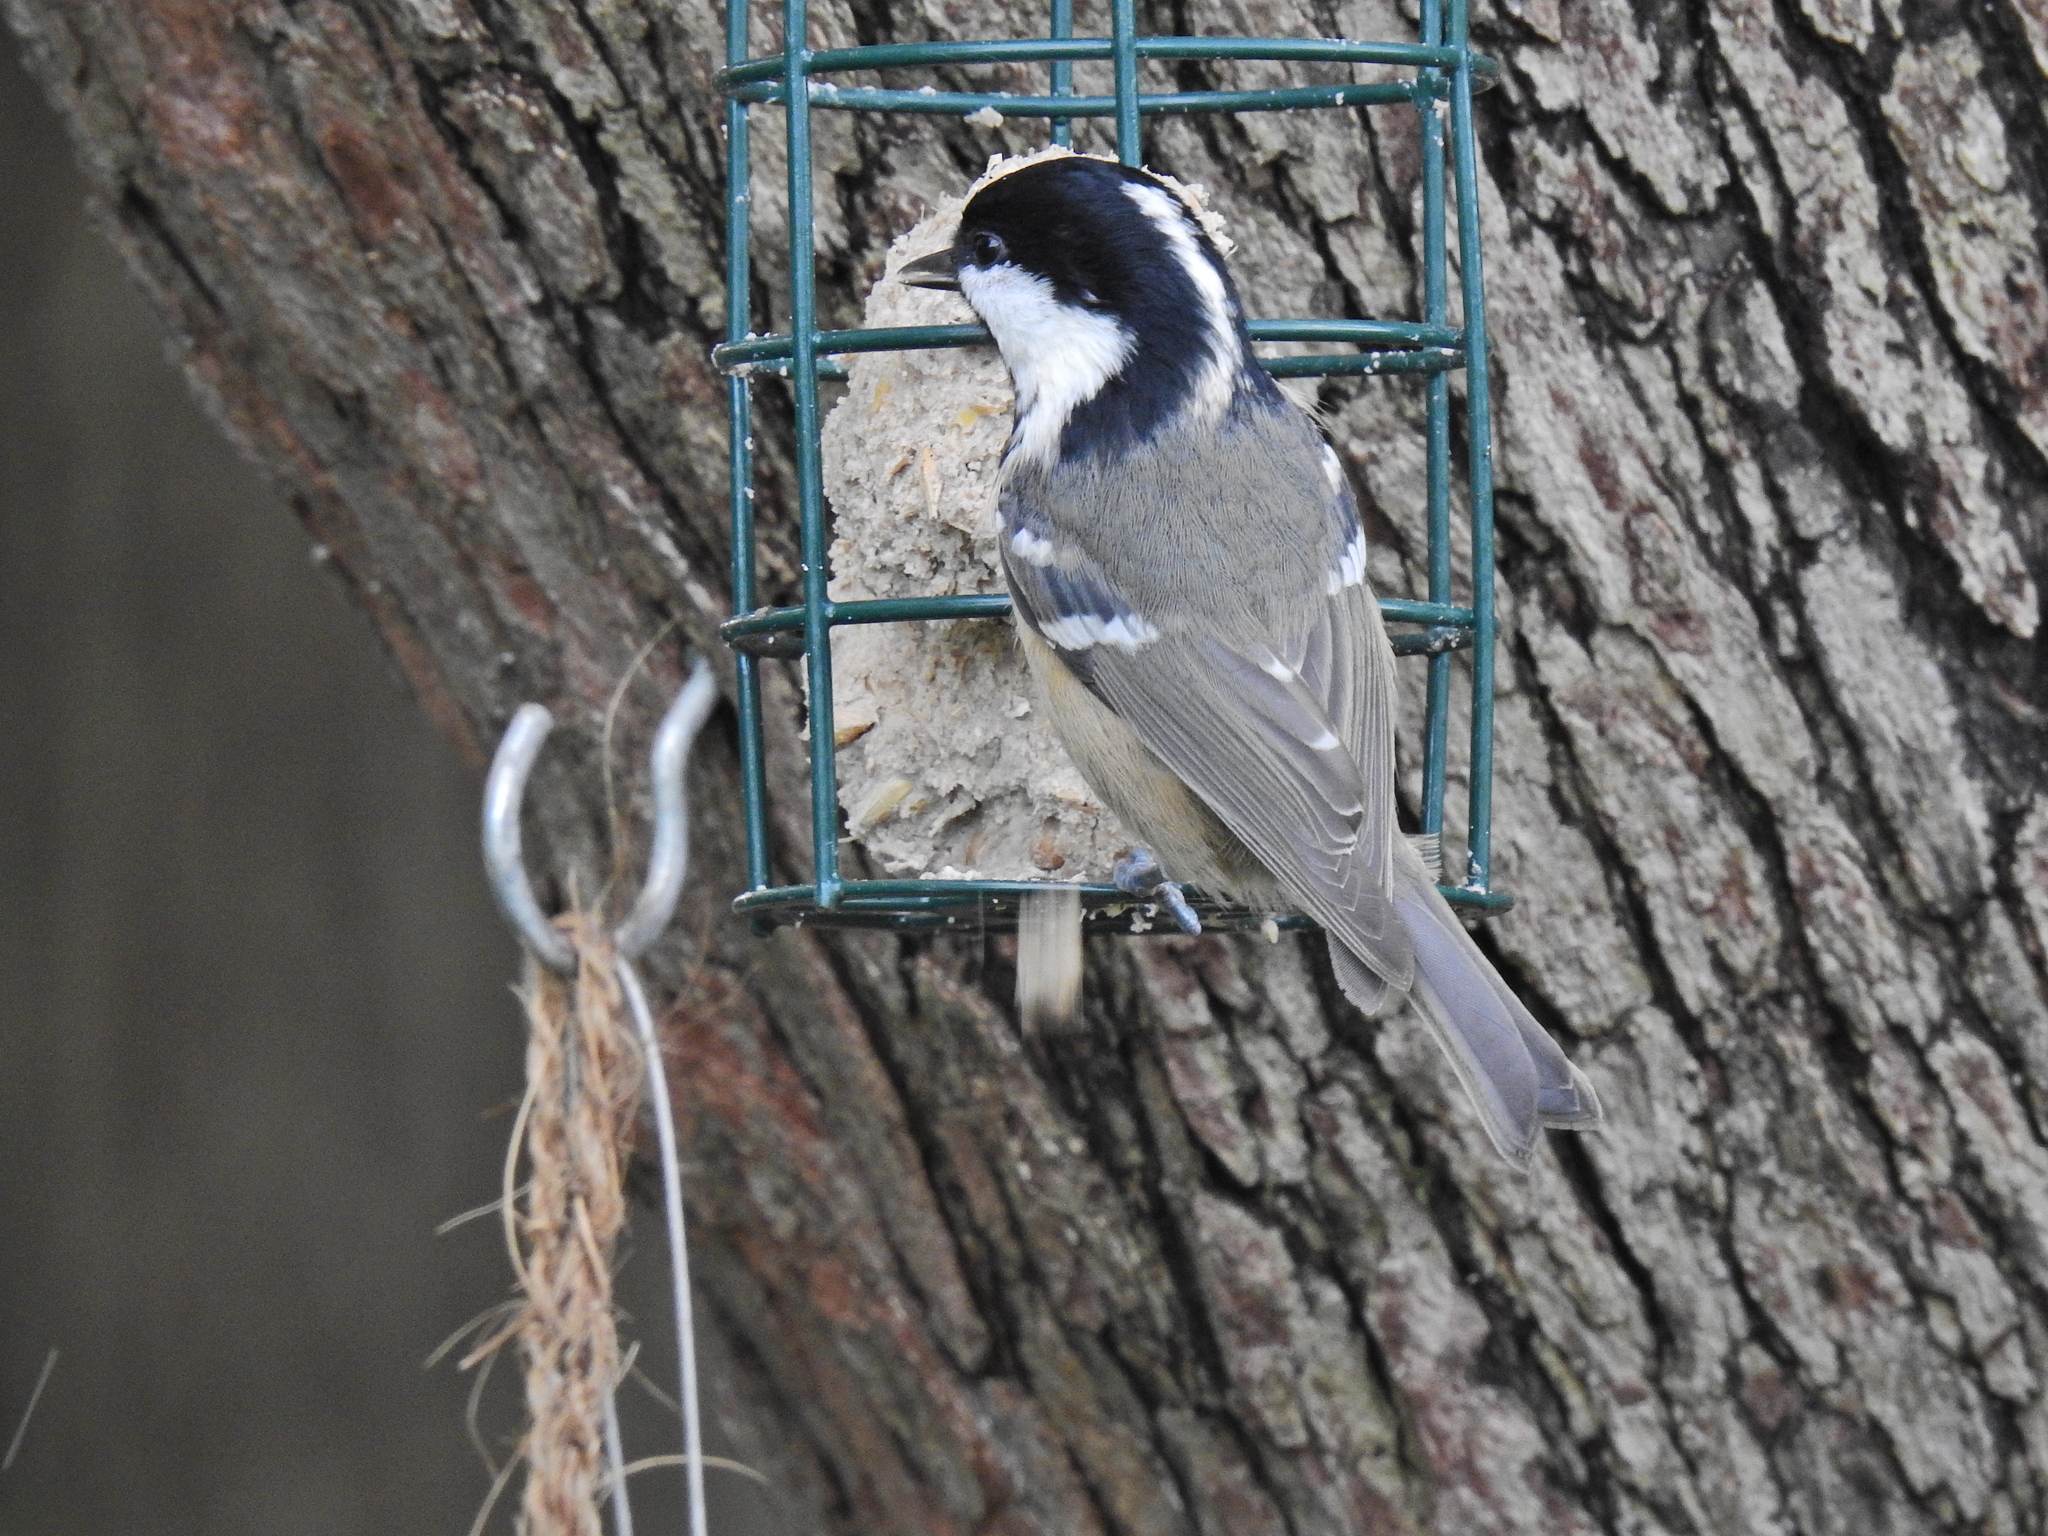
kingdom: Animalia
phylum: Chordata
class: Aves
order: Passeriformes
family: Paridae
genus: Periparus
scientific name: Periparus ater
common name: Coal tit
